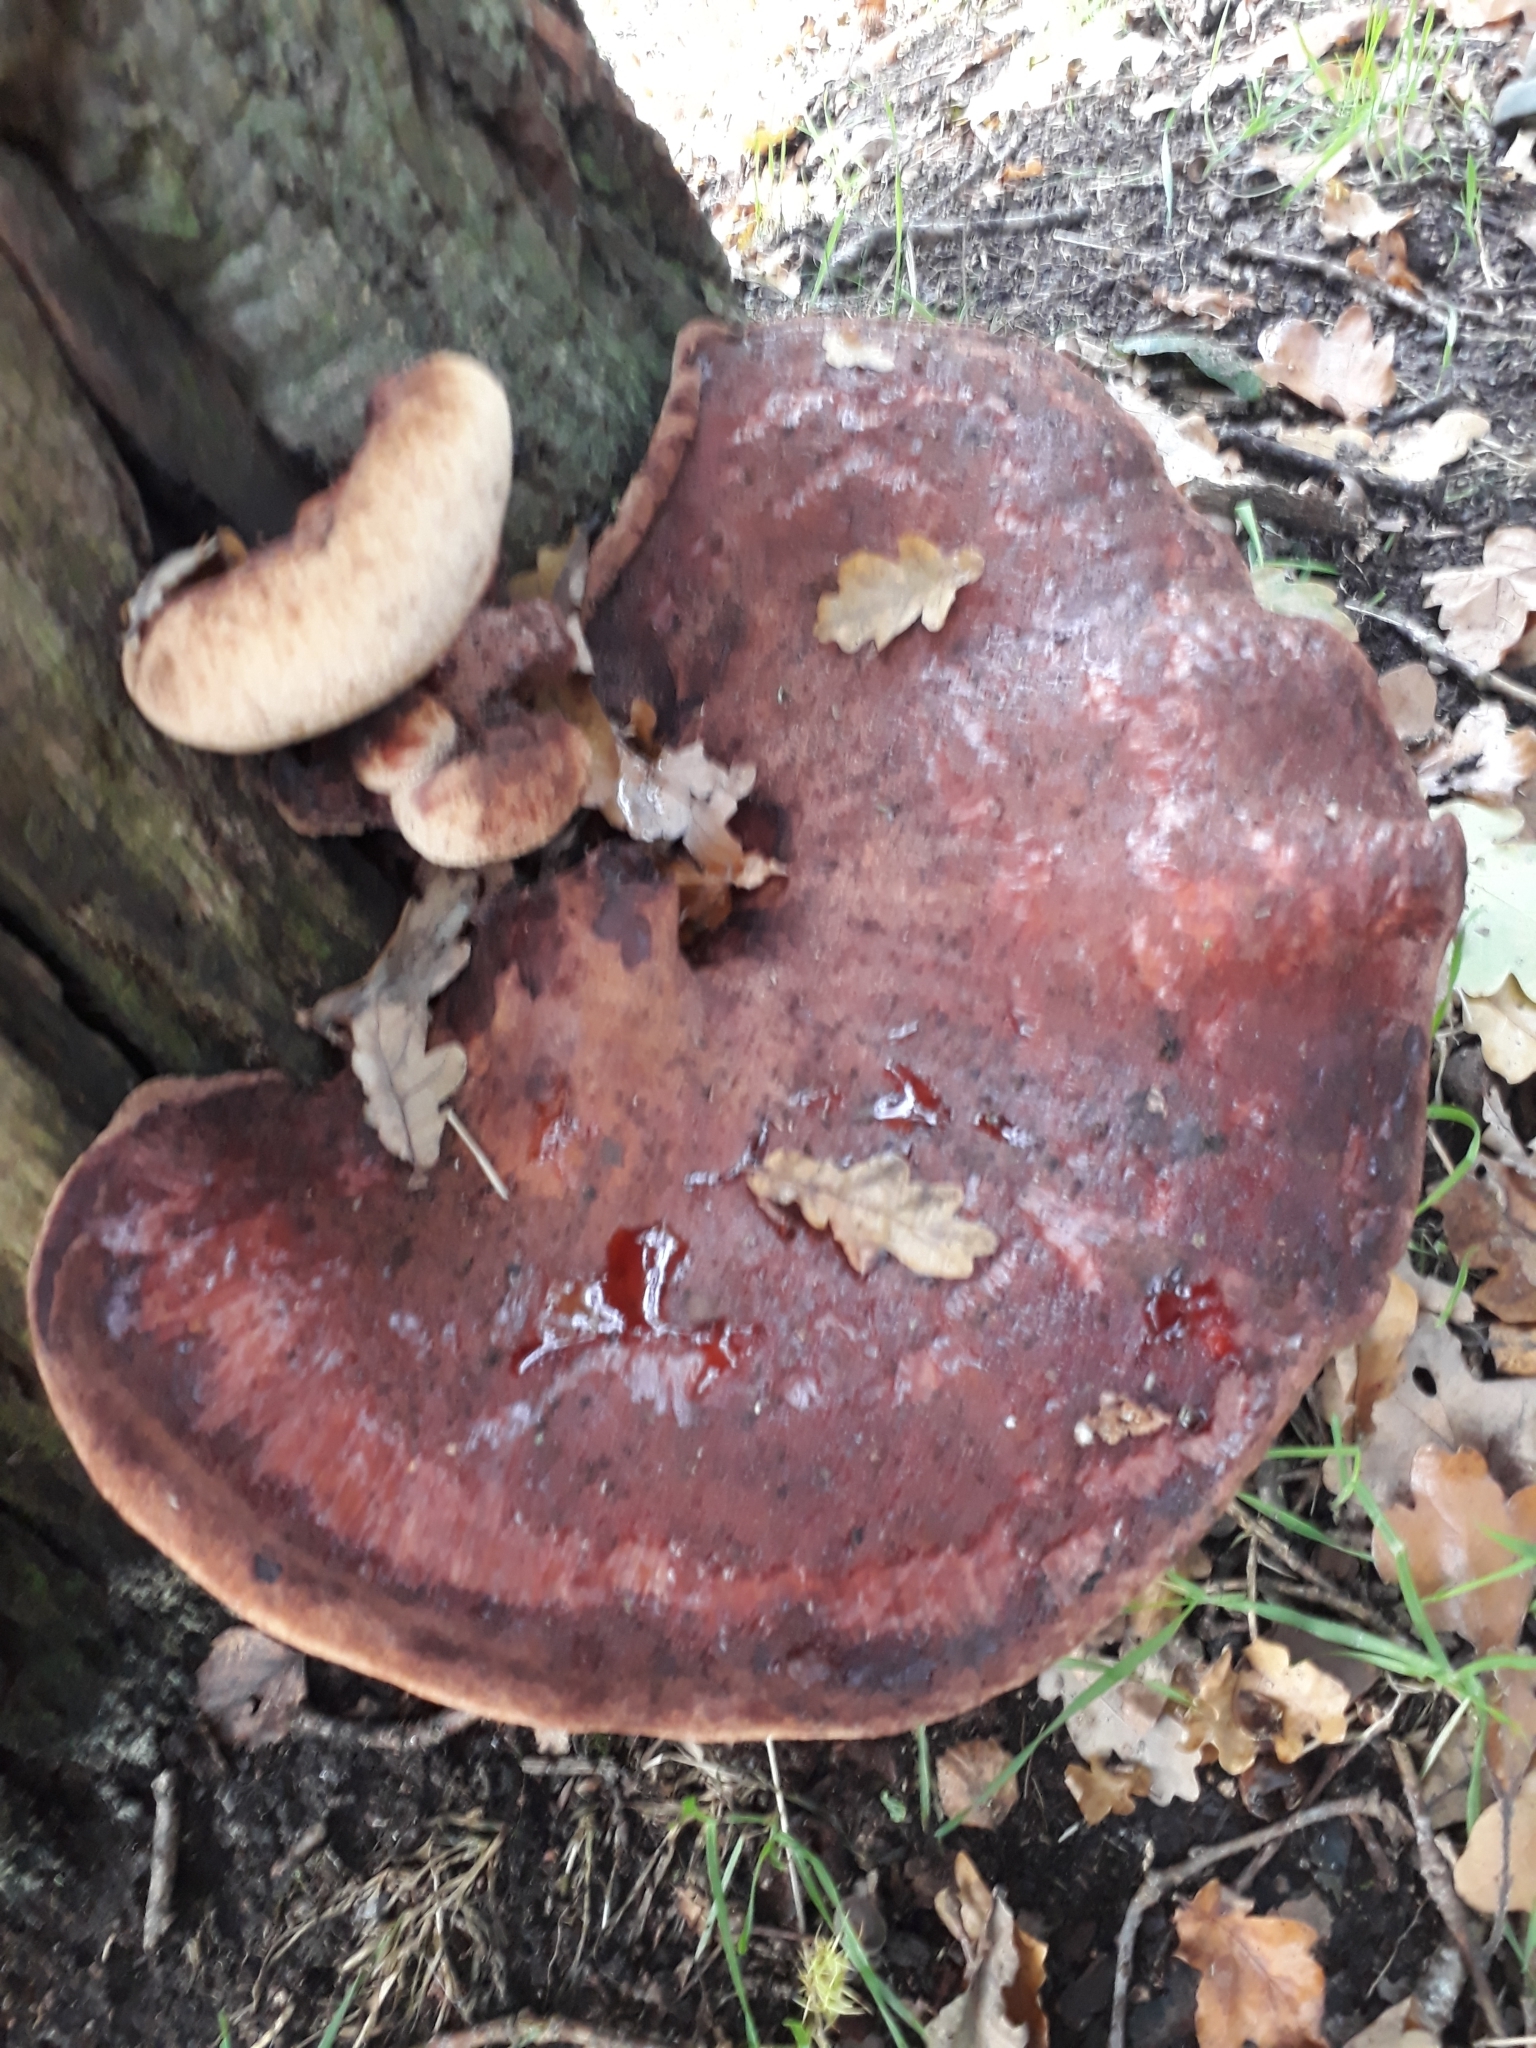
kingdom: Fungi
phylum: Basidiomycota
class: Agaricomycetes
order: Agaricales
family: Fistulinaceae
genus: Fistulina
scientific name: Fistulina hepatica
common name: Beef-steak fungus
